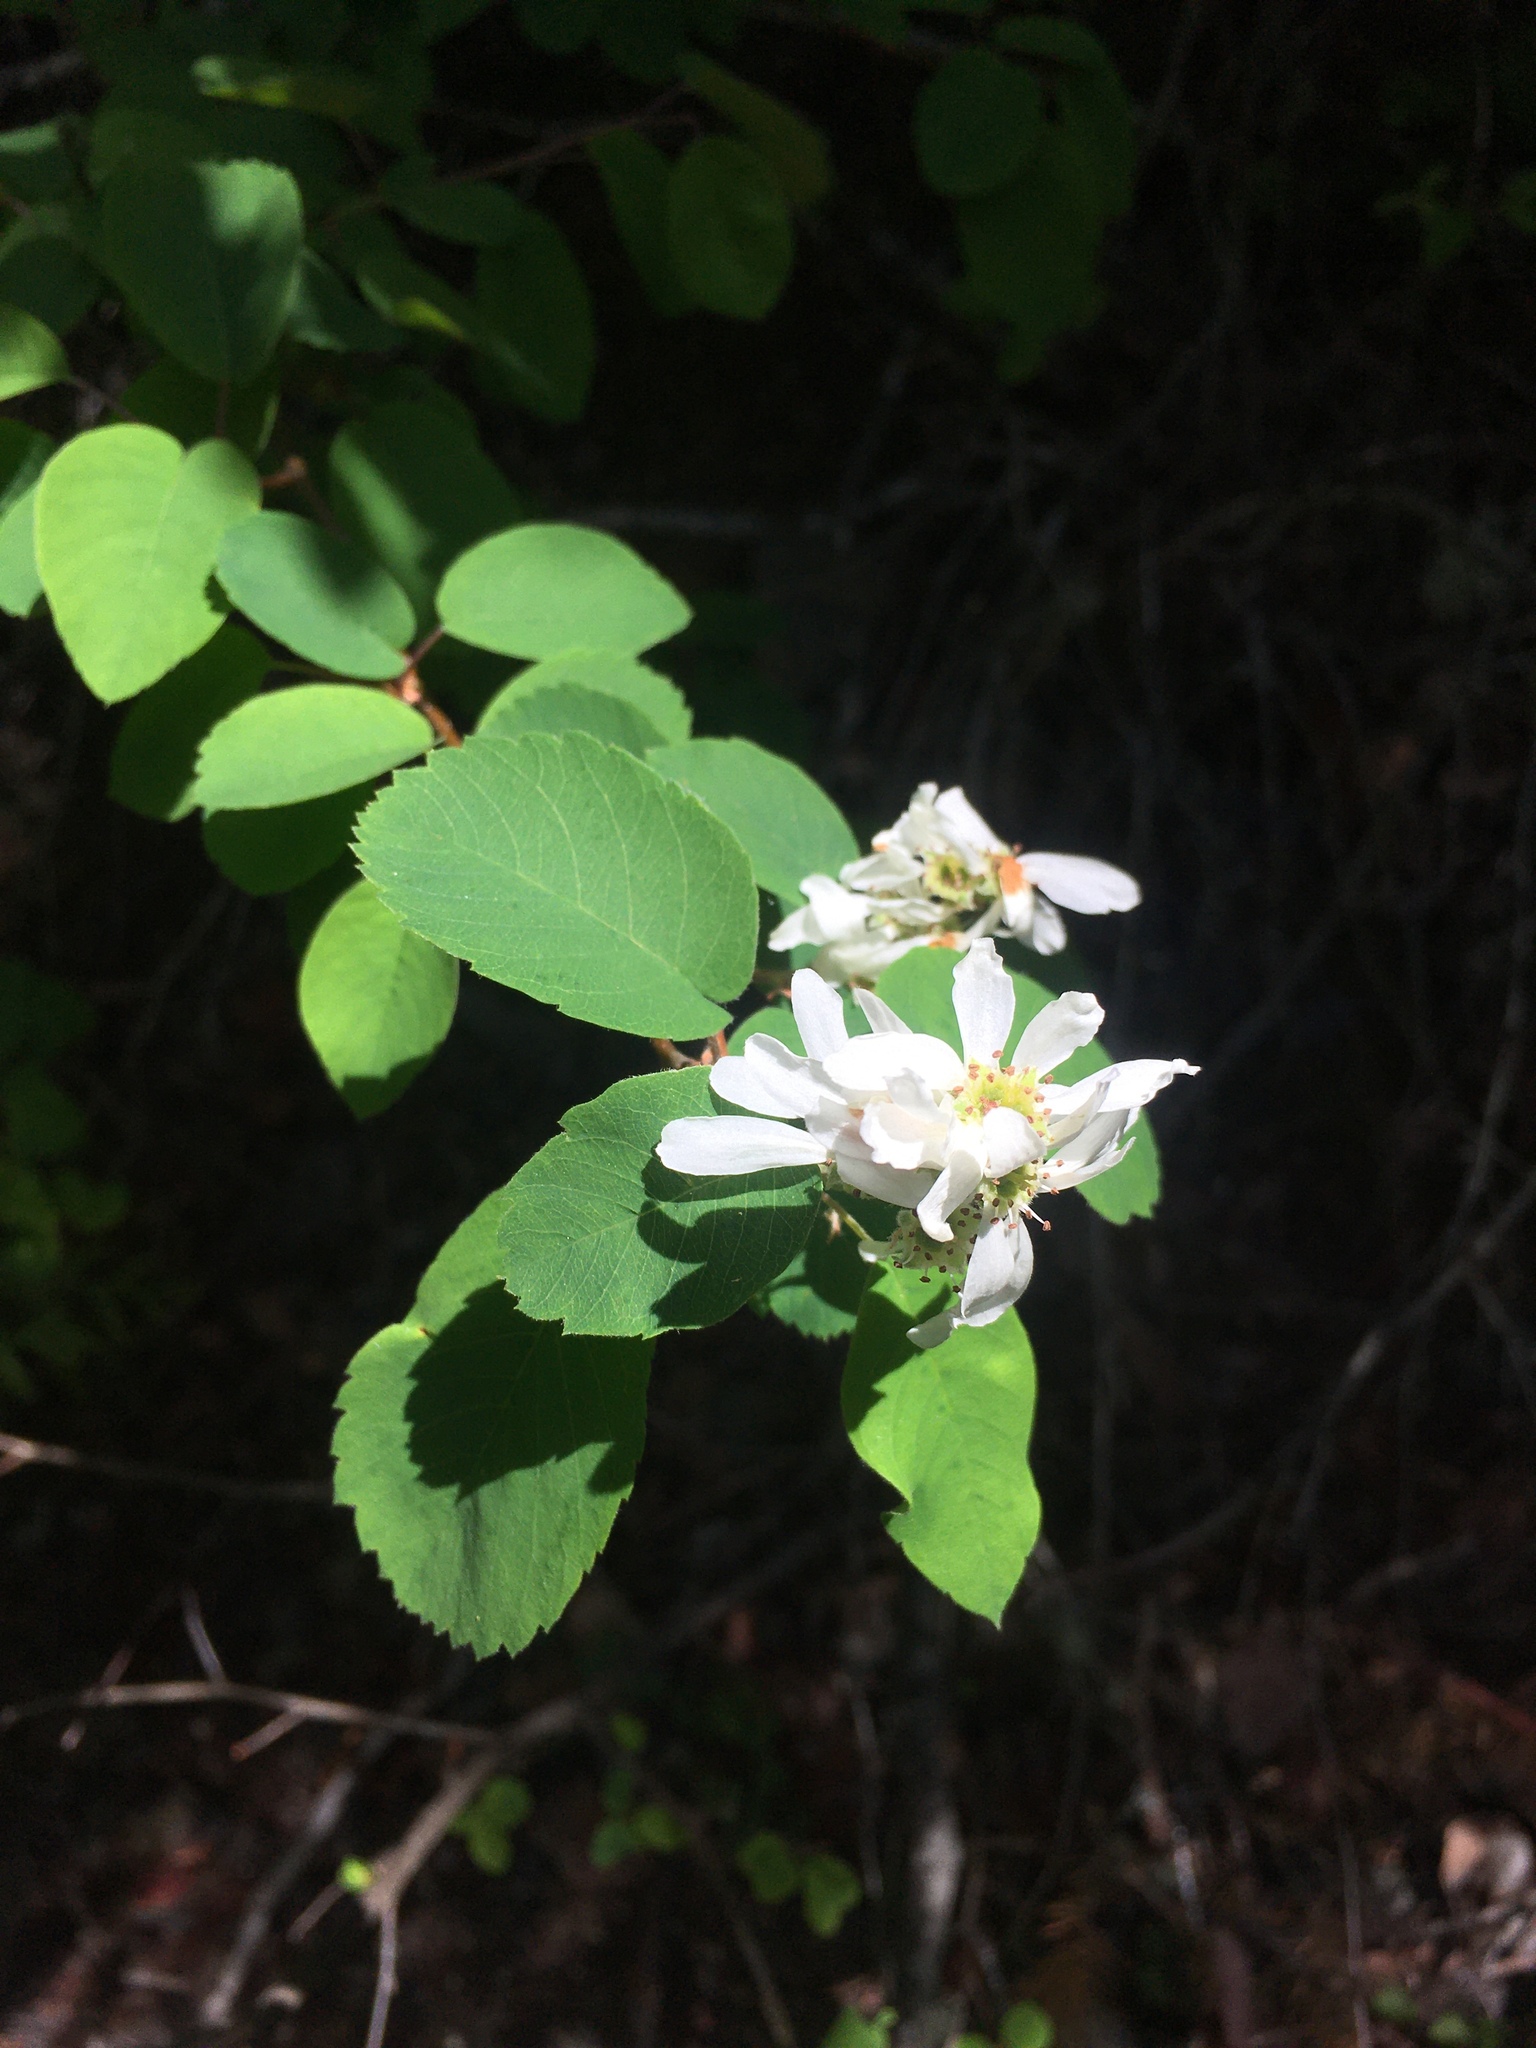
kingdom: Plantae
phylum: Tracheophyta
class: Magnoliopsida
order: Rosales
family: Rosaceae
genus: Amelanchier
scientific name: Amelanchier alnifolia
